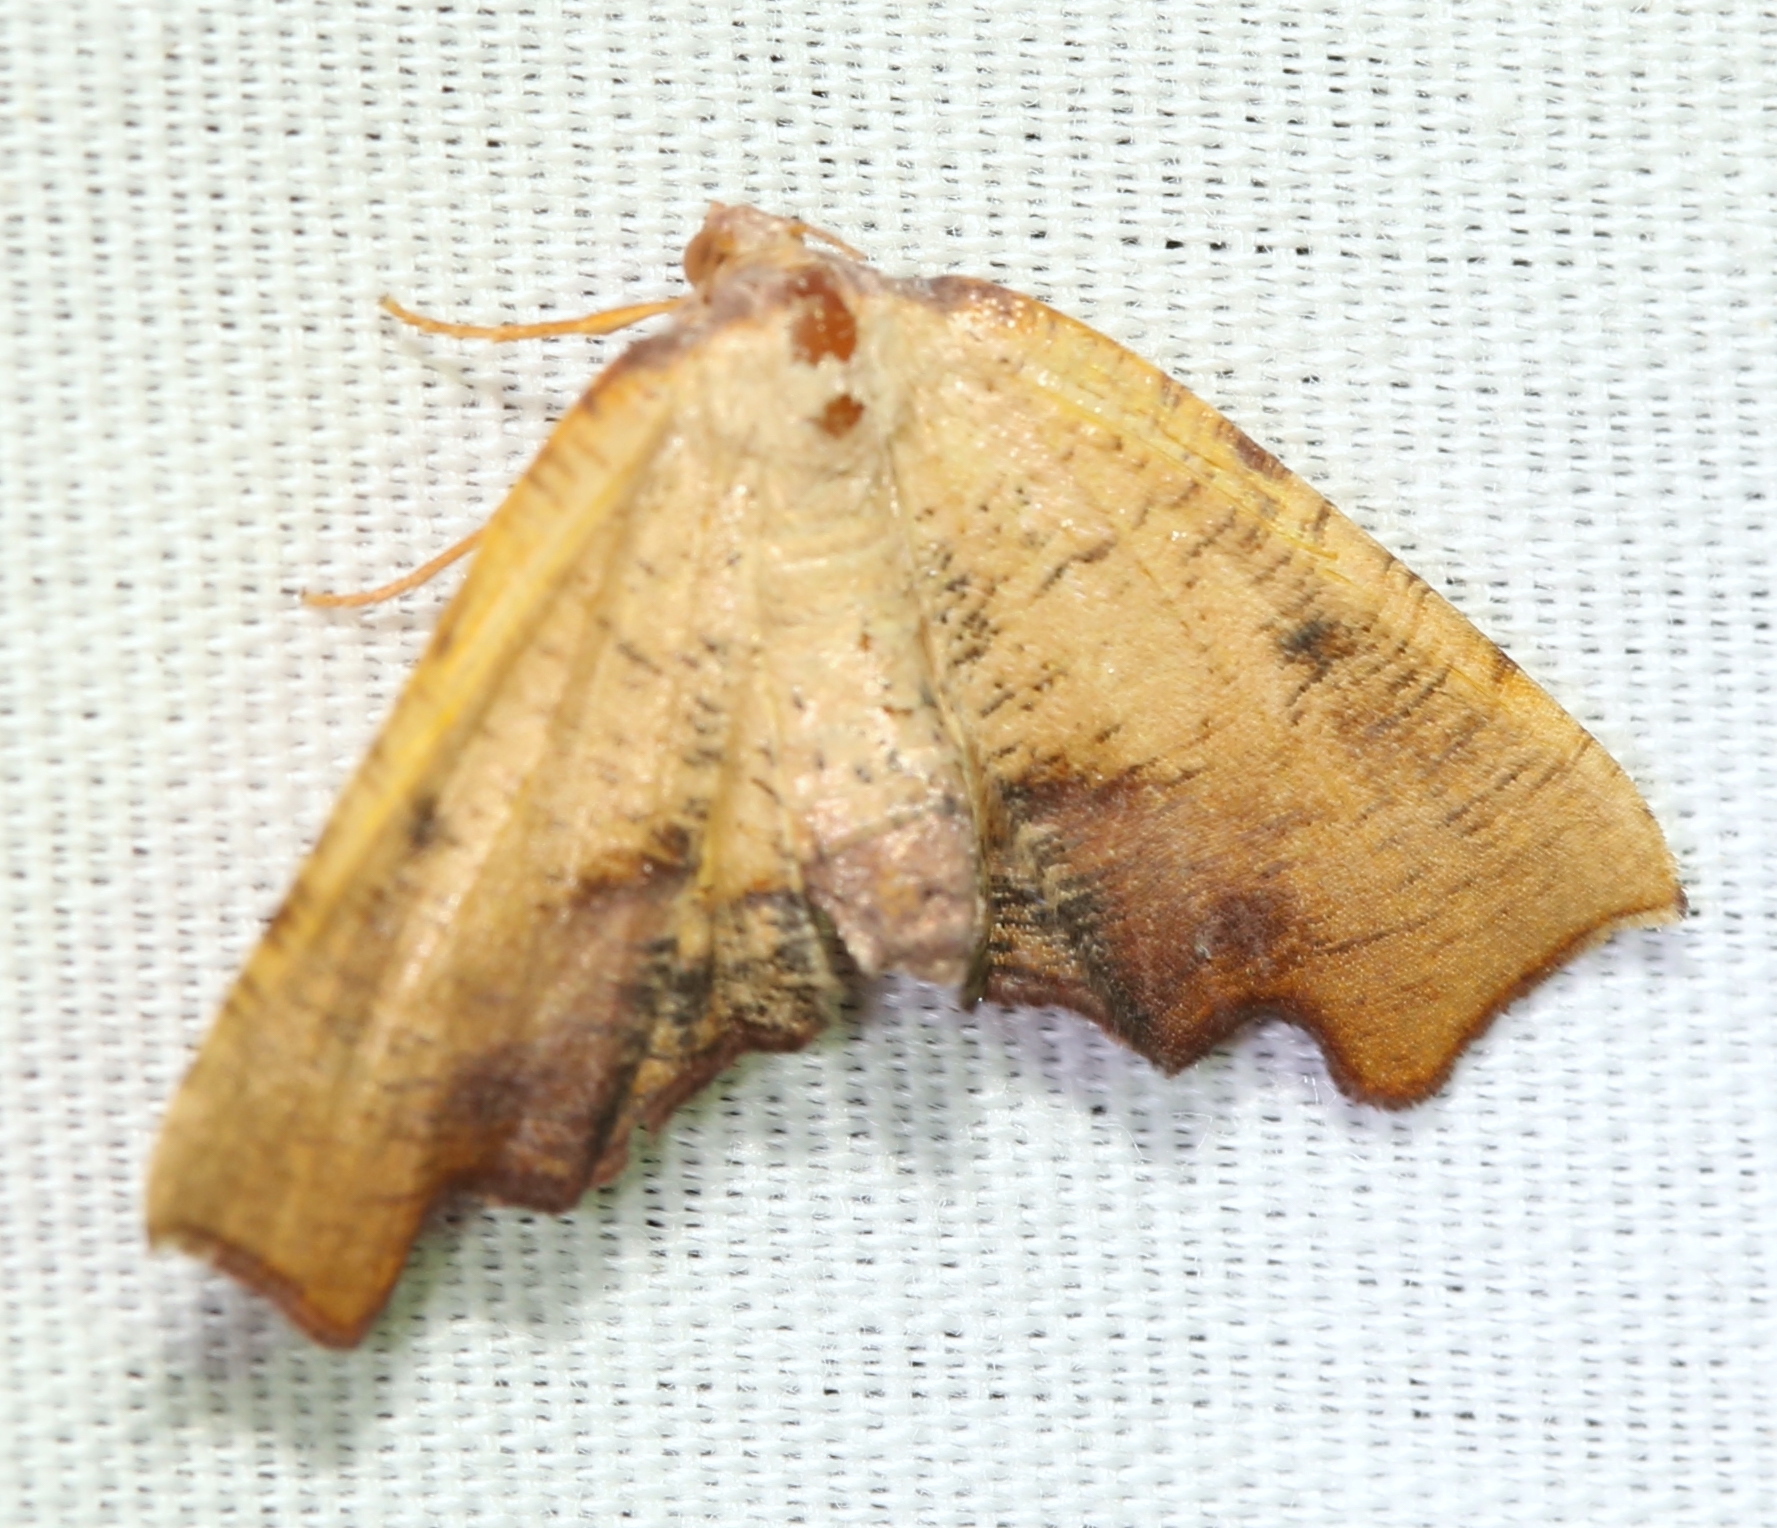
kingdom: Animalia
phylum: Arthropoda
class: Insecta
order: Lepidoptera
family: Geometridae
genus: Plagodis
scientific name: Plagodis fervidaria
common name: Fervid plagodis
